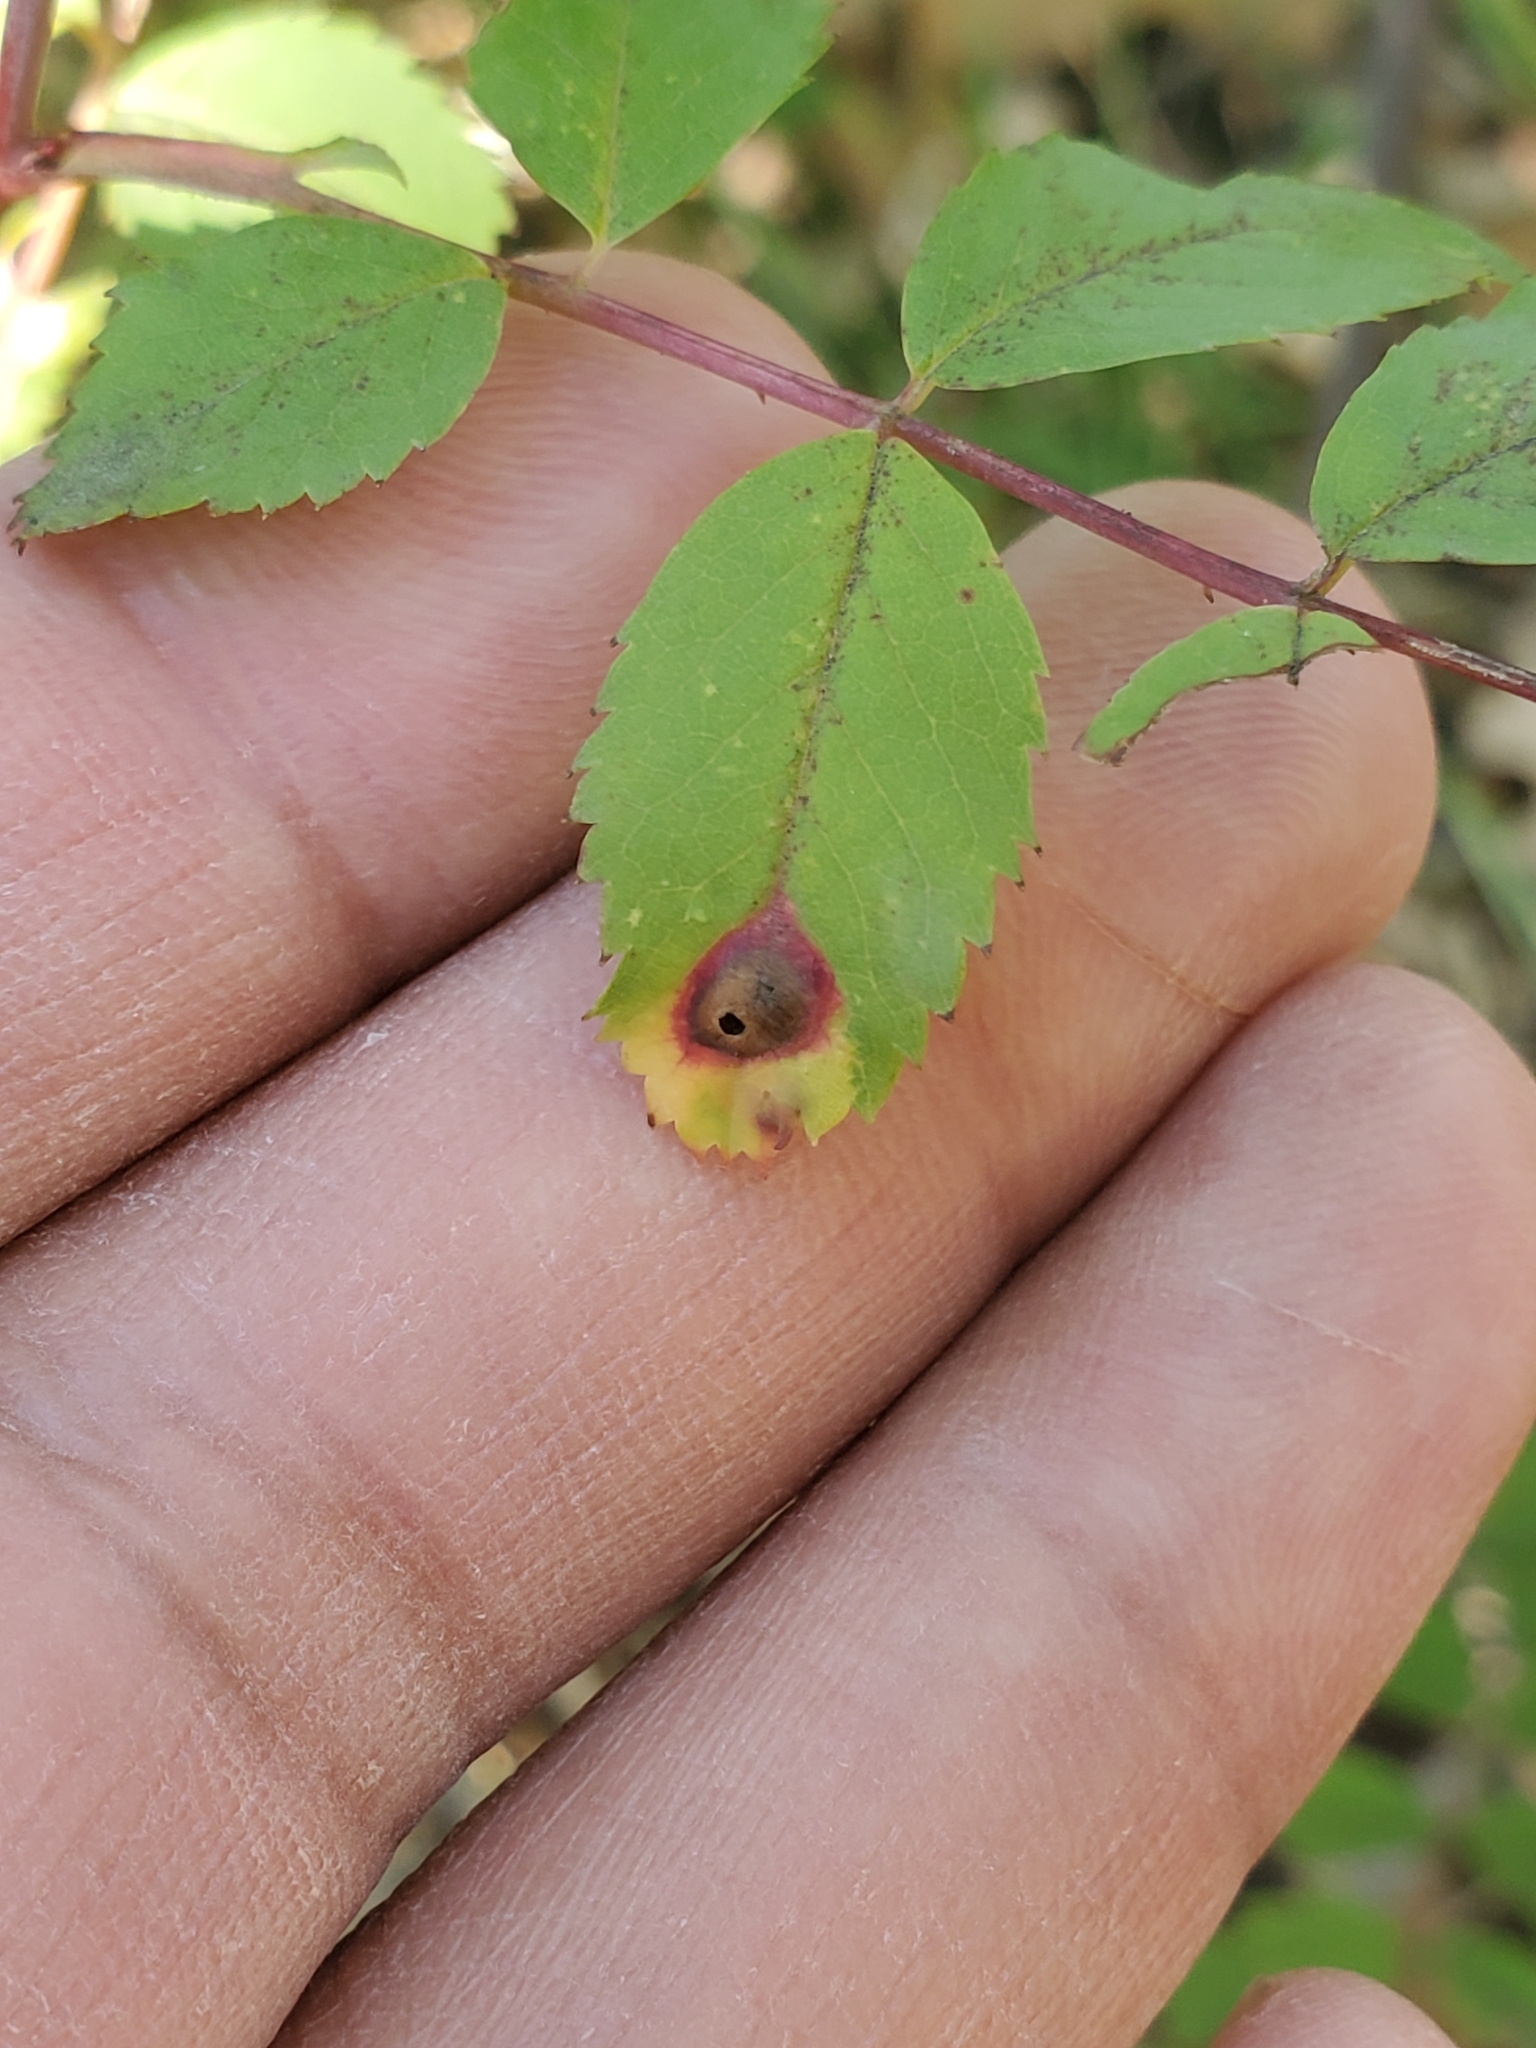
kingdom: Animalia
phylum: Arthropoda
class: Insecta
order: Hymenoptera
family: Cynipidae
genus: Diplolepis
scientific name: Diplolepis rosaefolii
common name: Blister-gall wasp
